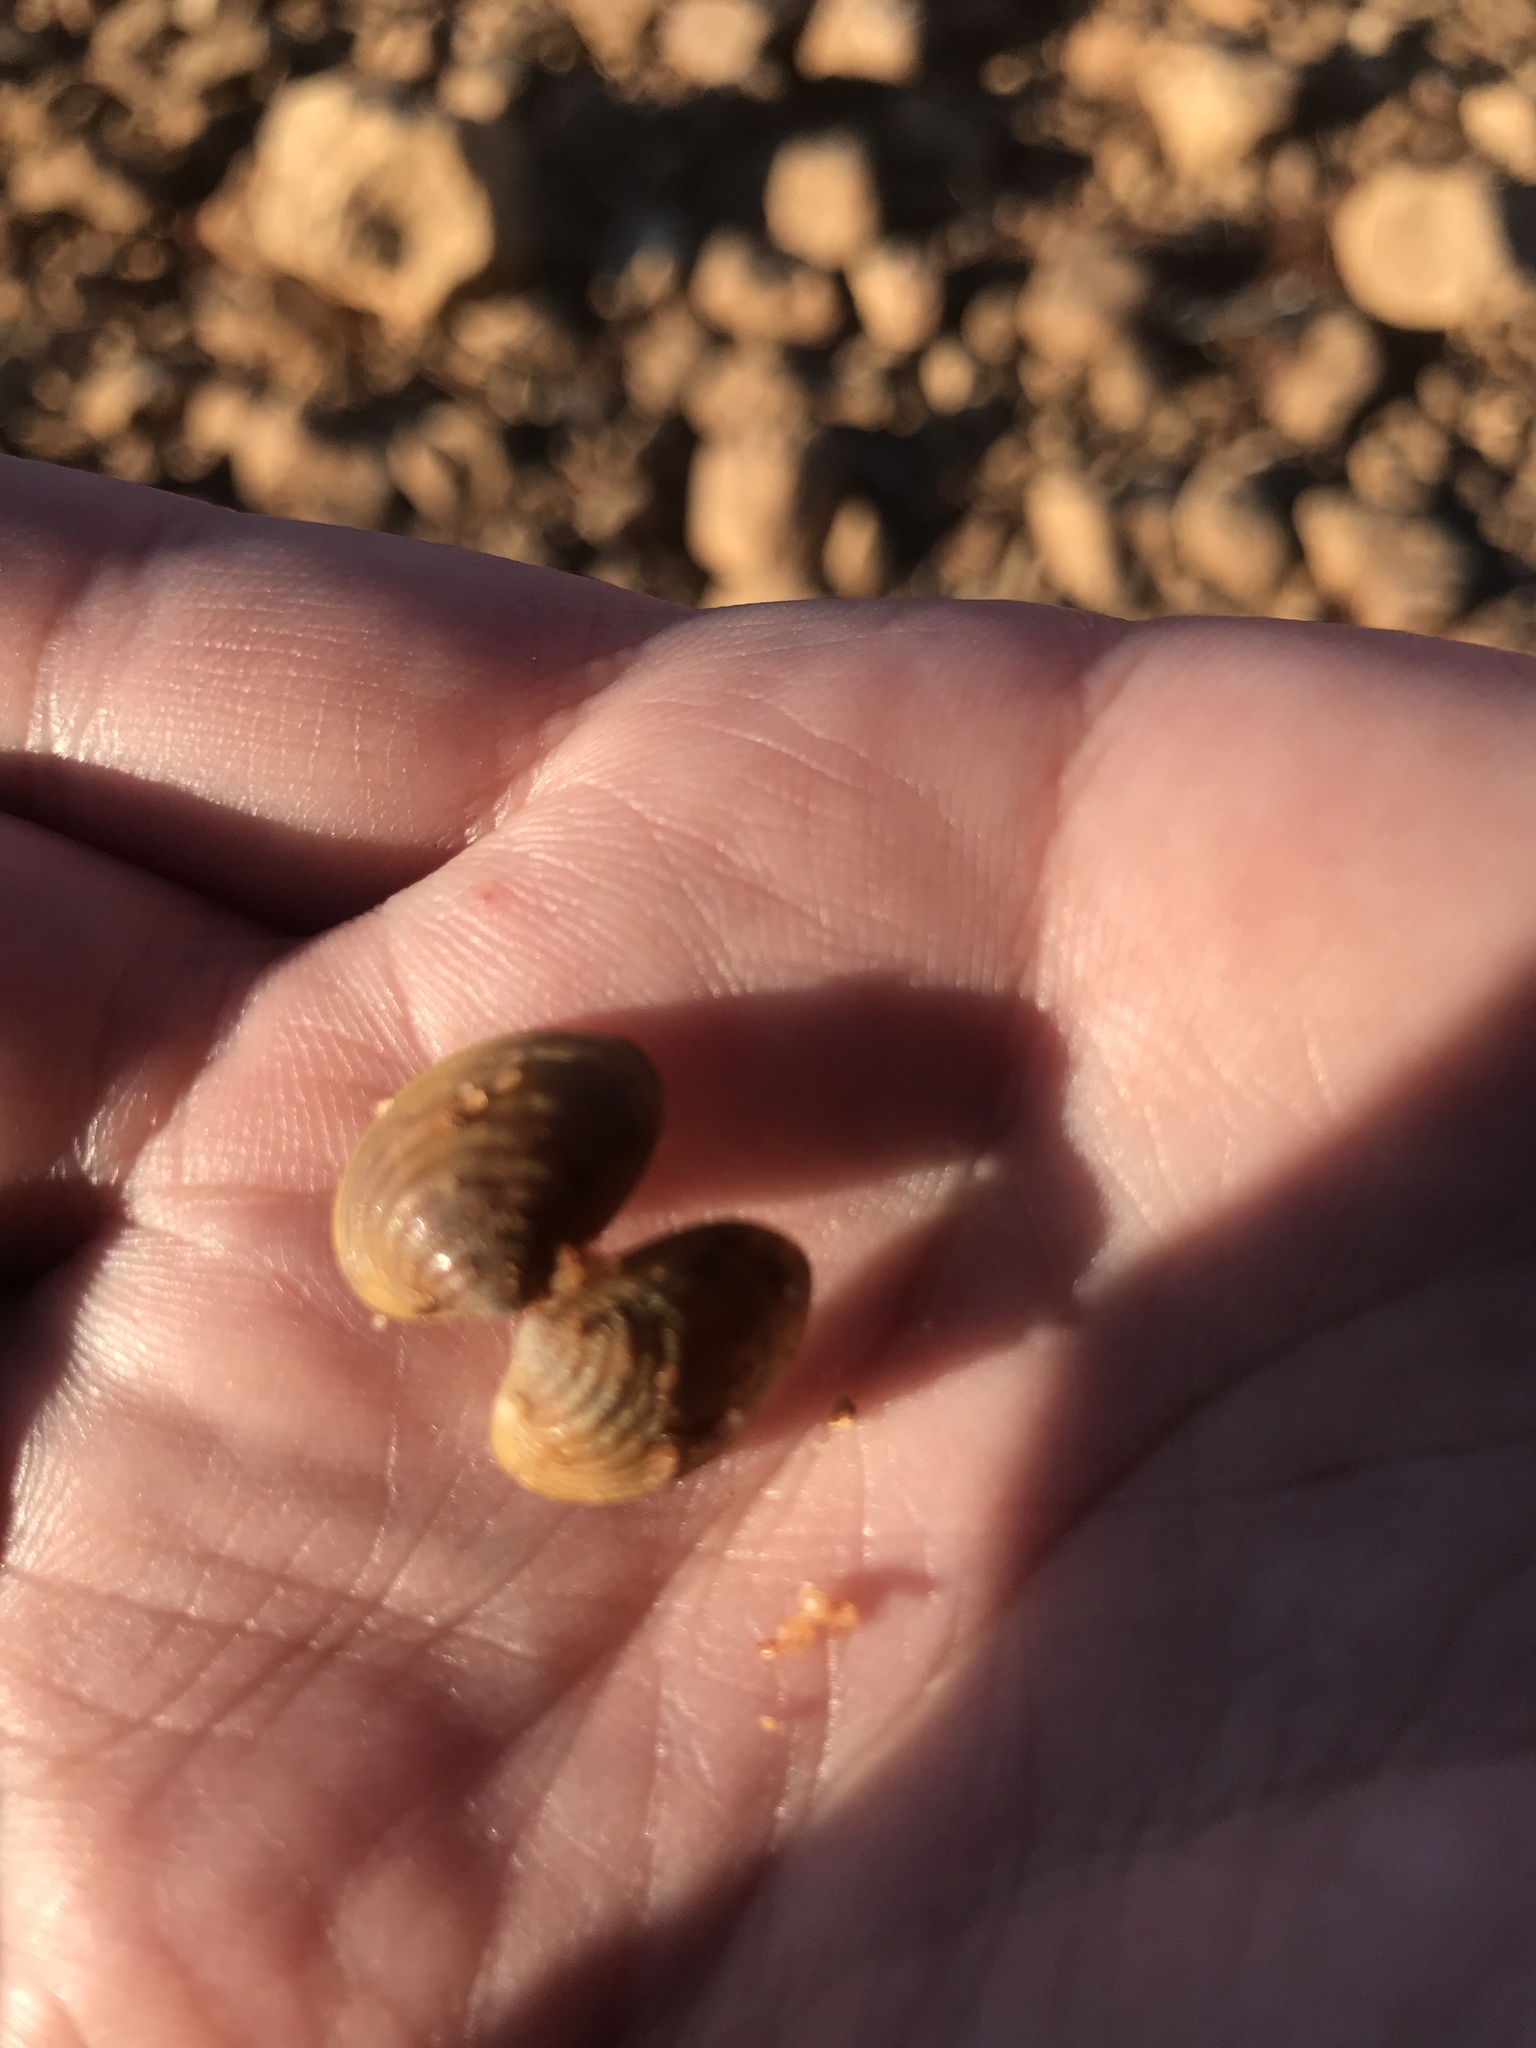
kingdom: Animalia
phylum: Mollusca
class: Bivalvia
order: Venerida
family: Cyrenidae
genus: Corbicula
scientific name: Corbicula fluminea
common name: Asian clam
